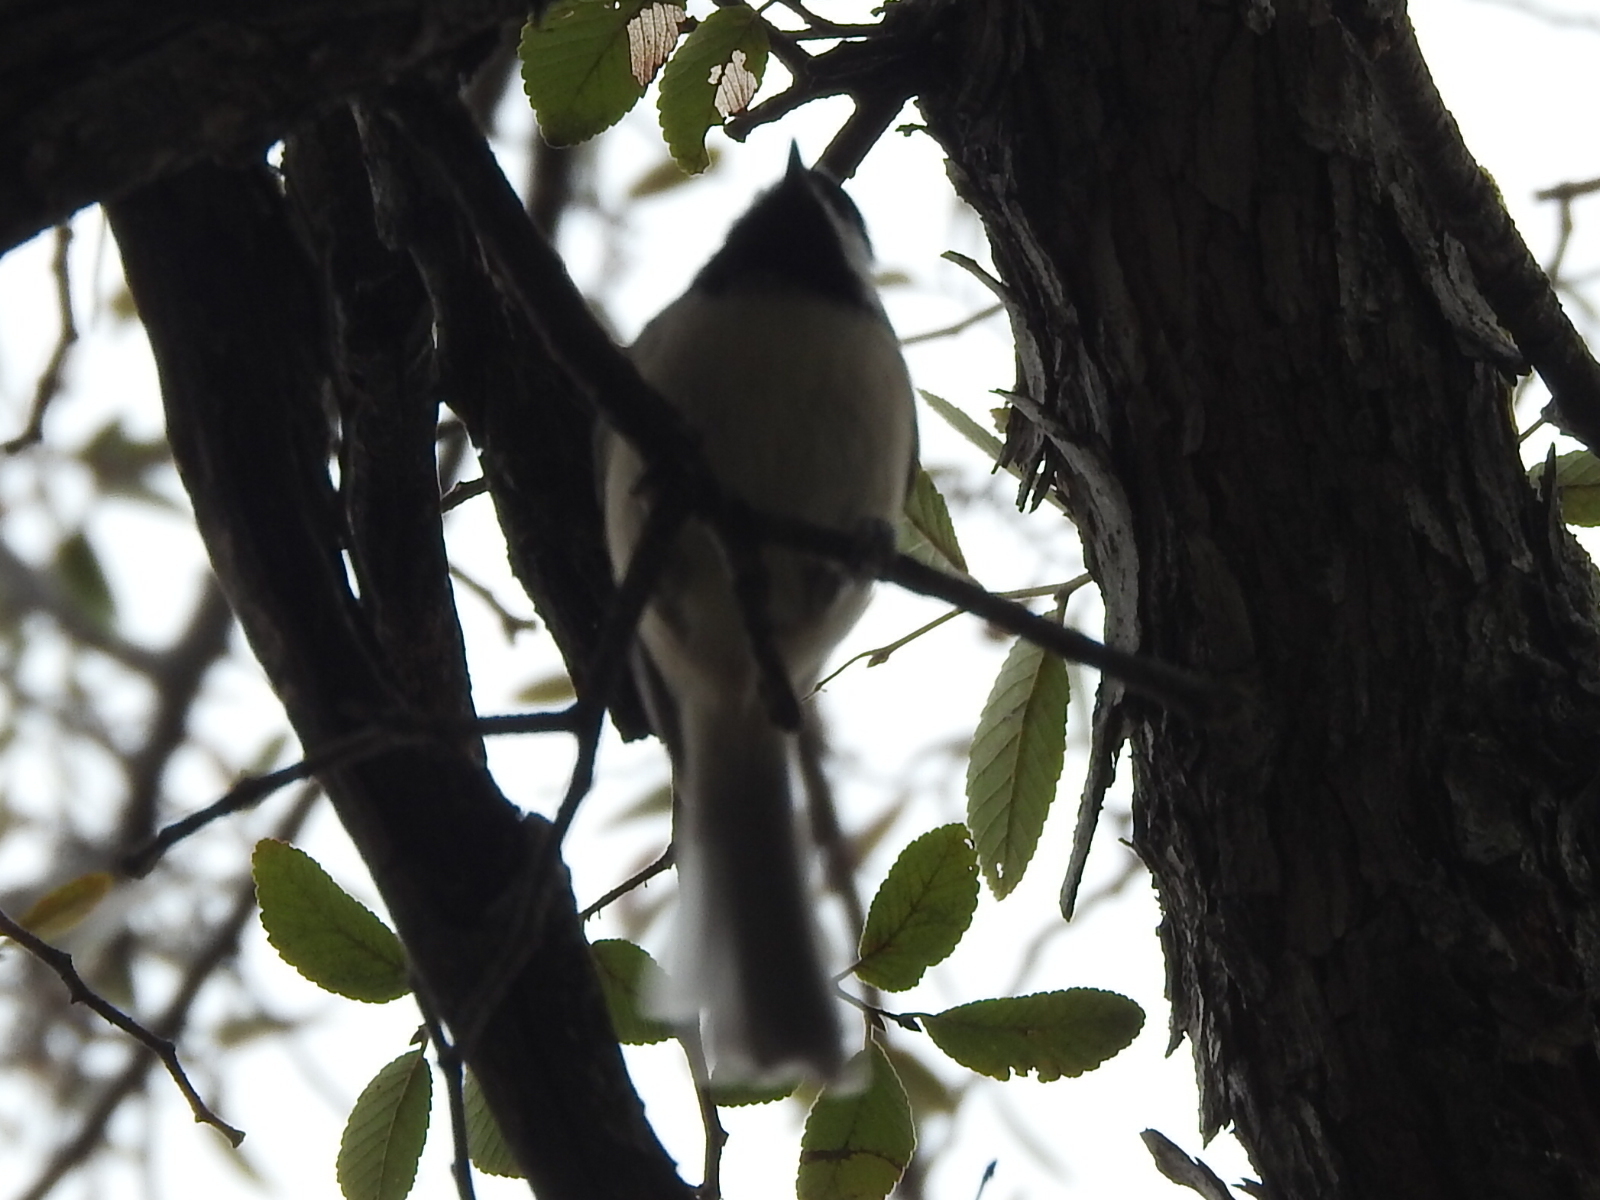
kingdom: Animalia
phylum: Chordata
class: Aves
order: Passeriformes
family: Paridae
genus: Poecile
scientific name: Poecile carolinensis
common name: Carolina chickadee
